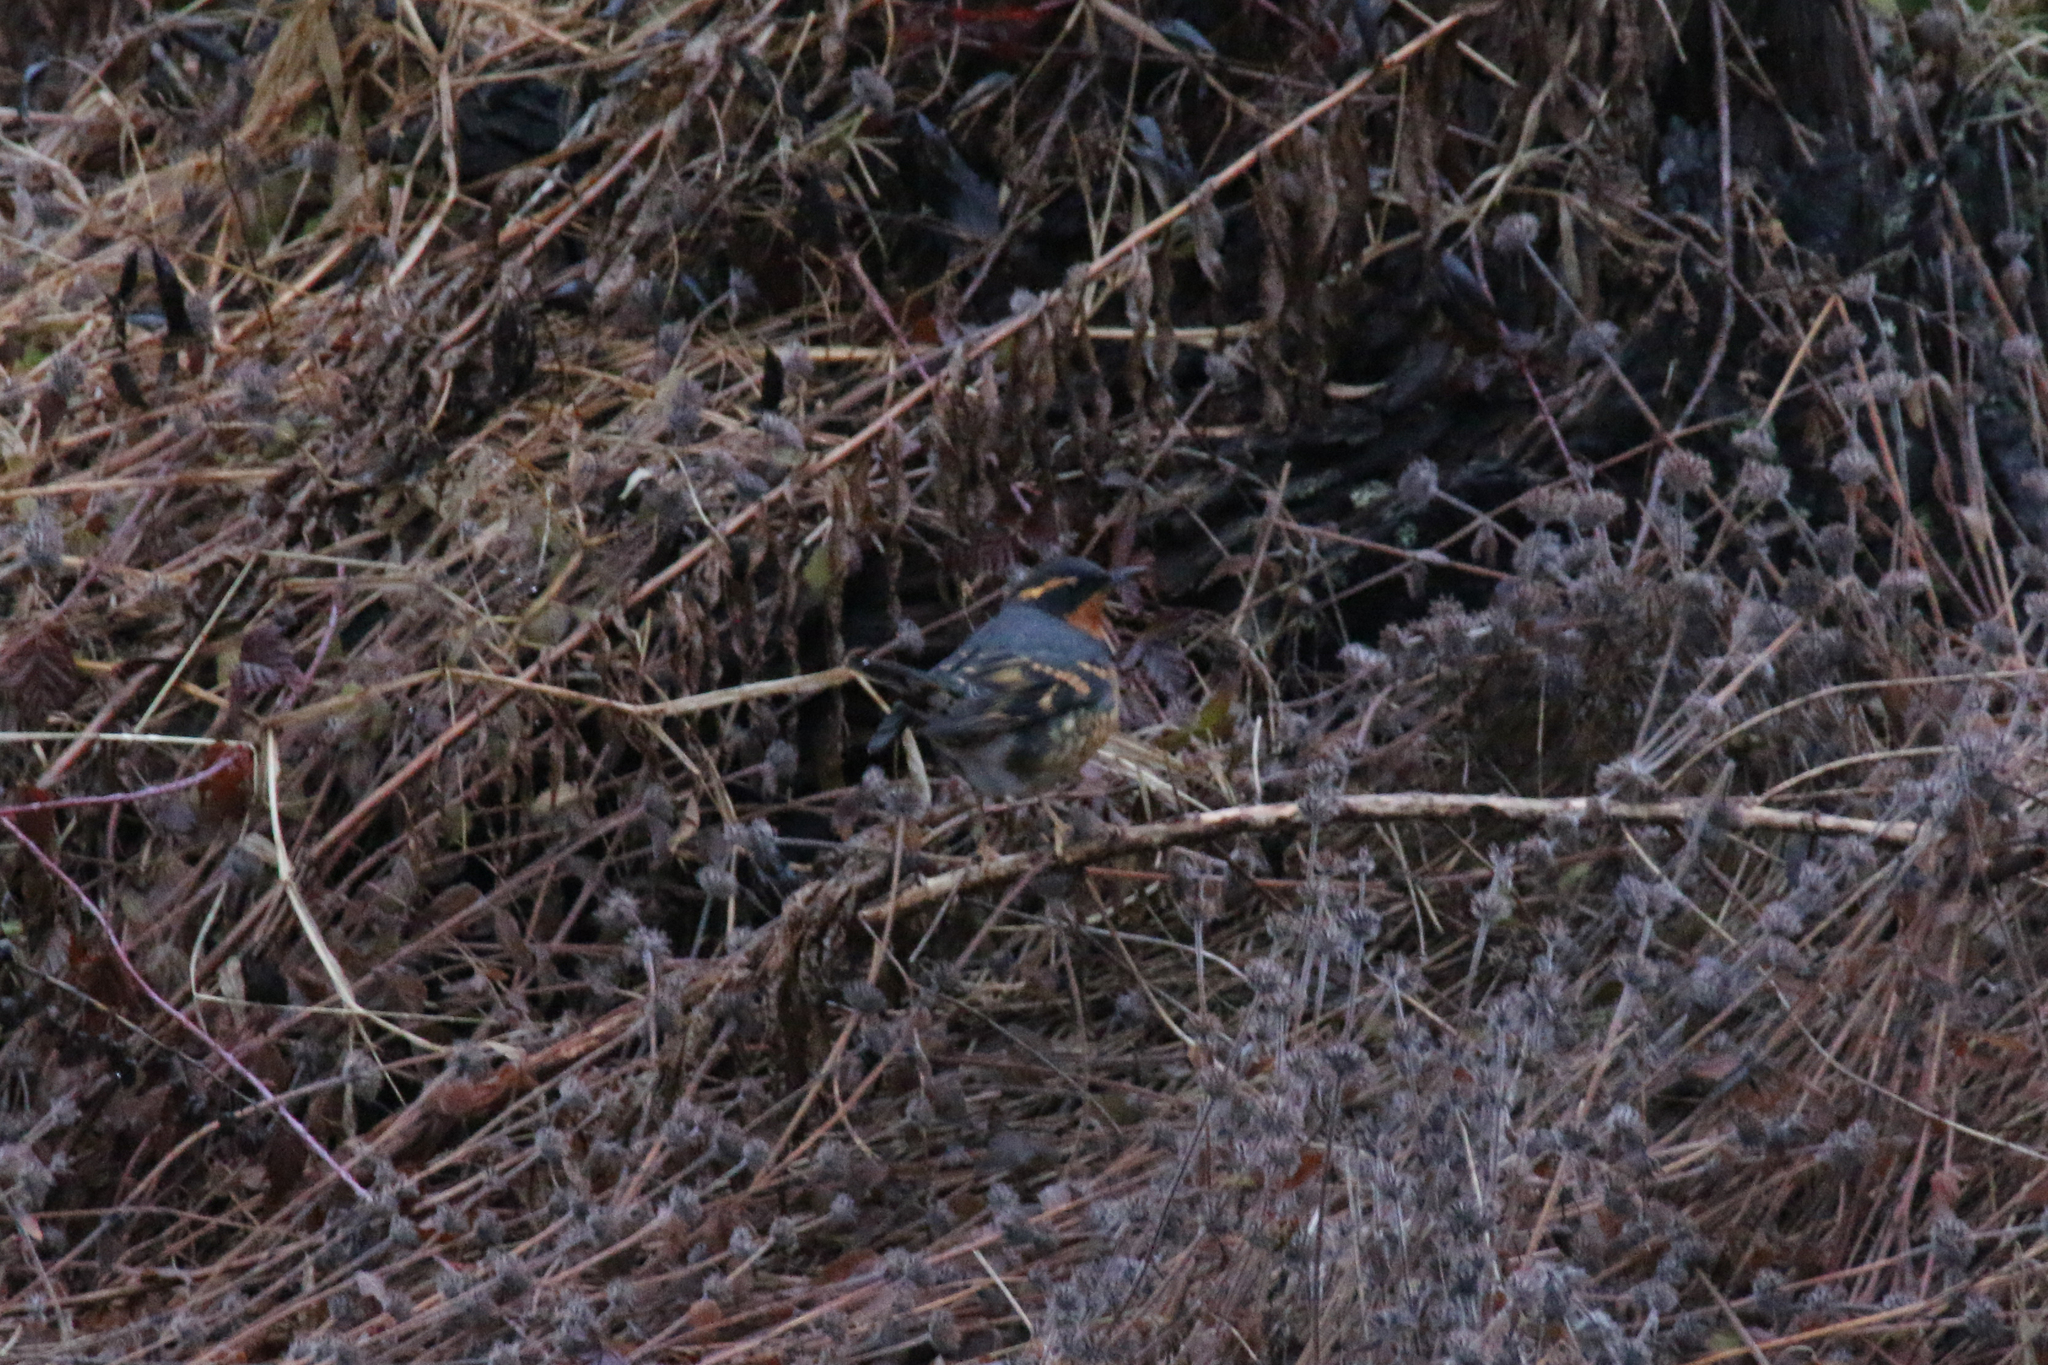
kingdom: Animalia
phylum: Chordata
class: Aves
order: Passeriformes
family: Turdidae
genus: Ixoreus
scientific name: Ixoreus naevius
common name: Varied thrush
